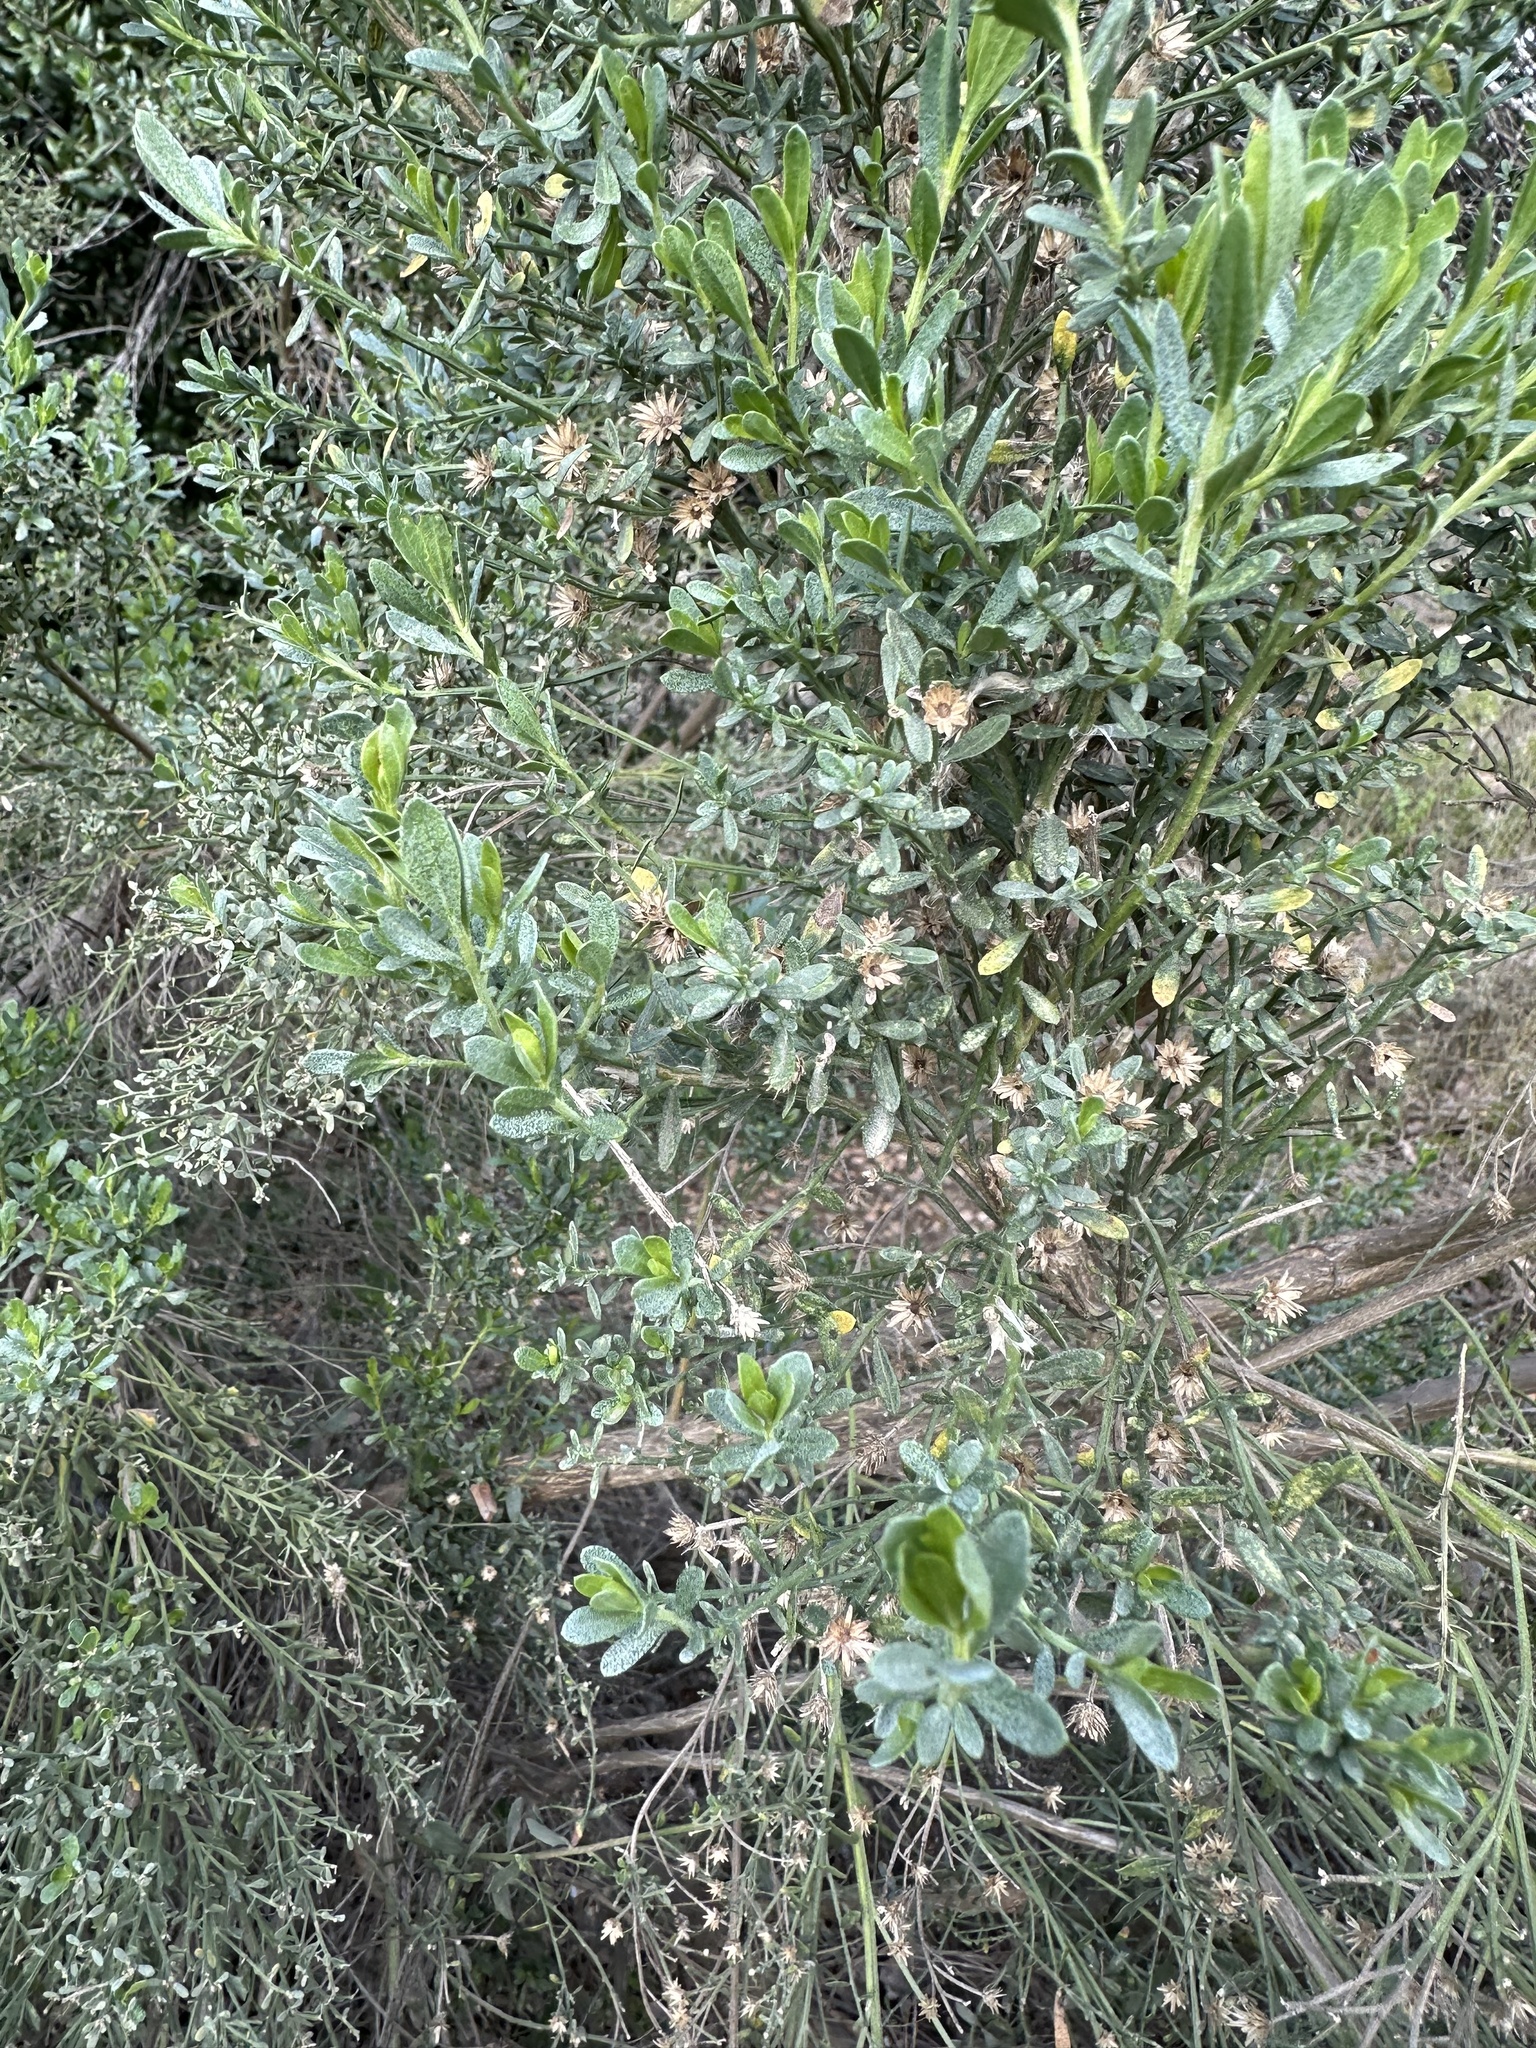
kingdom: Plantae
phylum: Tracheophyta
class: Magnoliopsida
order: Asterales
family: Asteraceae
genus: Baccharis
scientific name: Baccharis pilularis
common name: Coyotebrush
